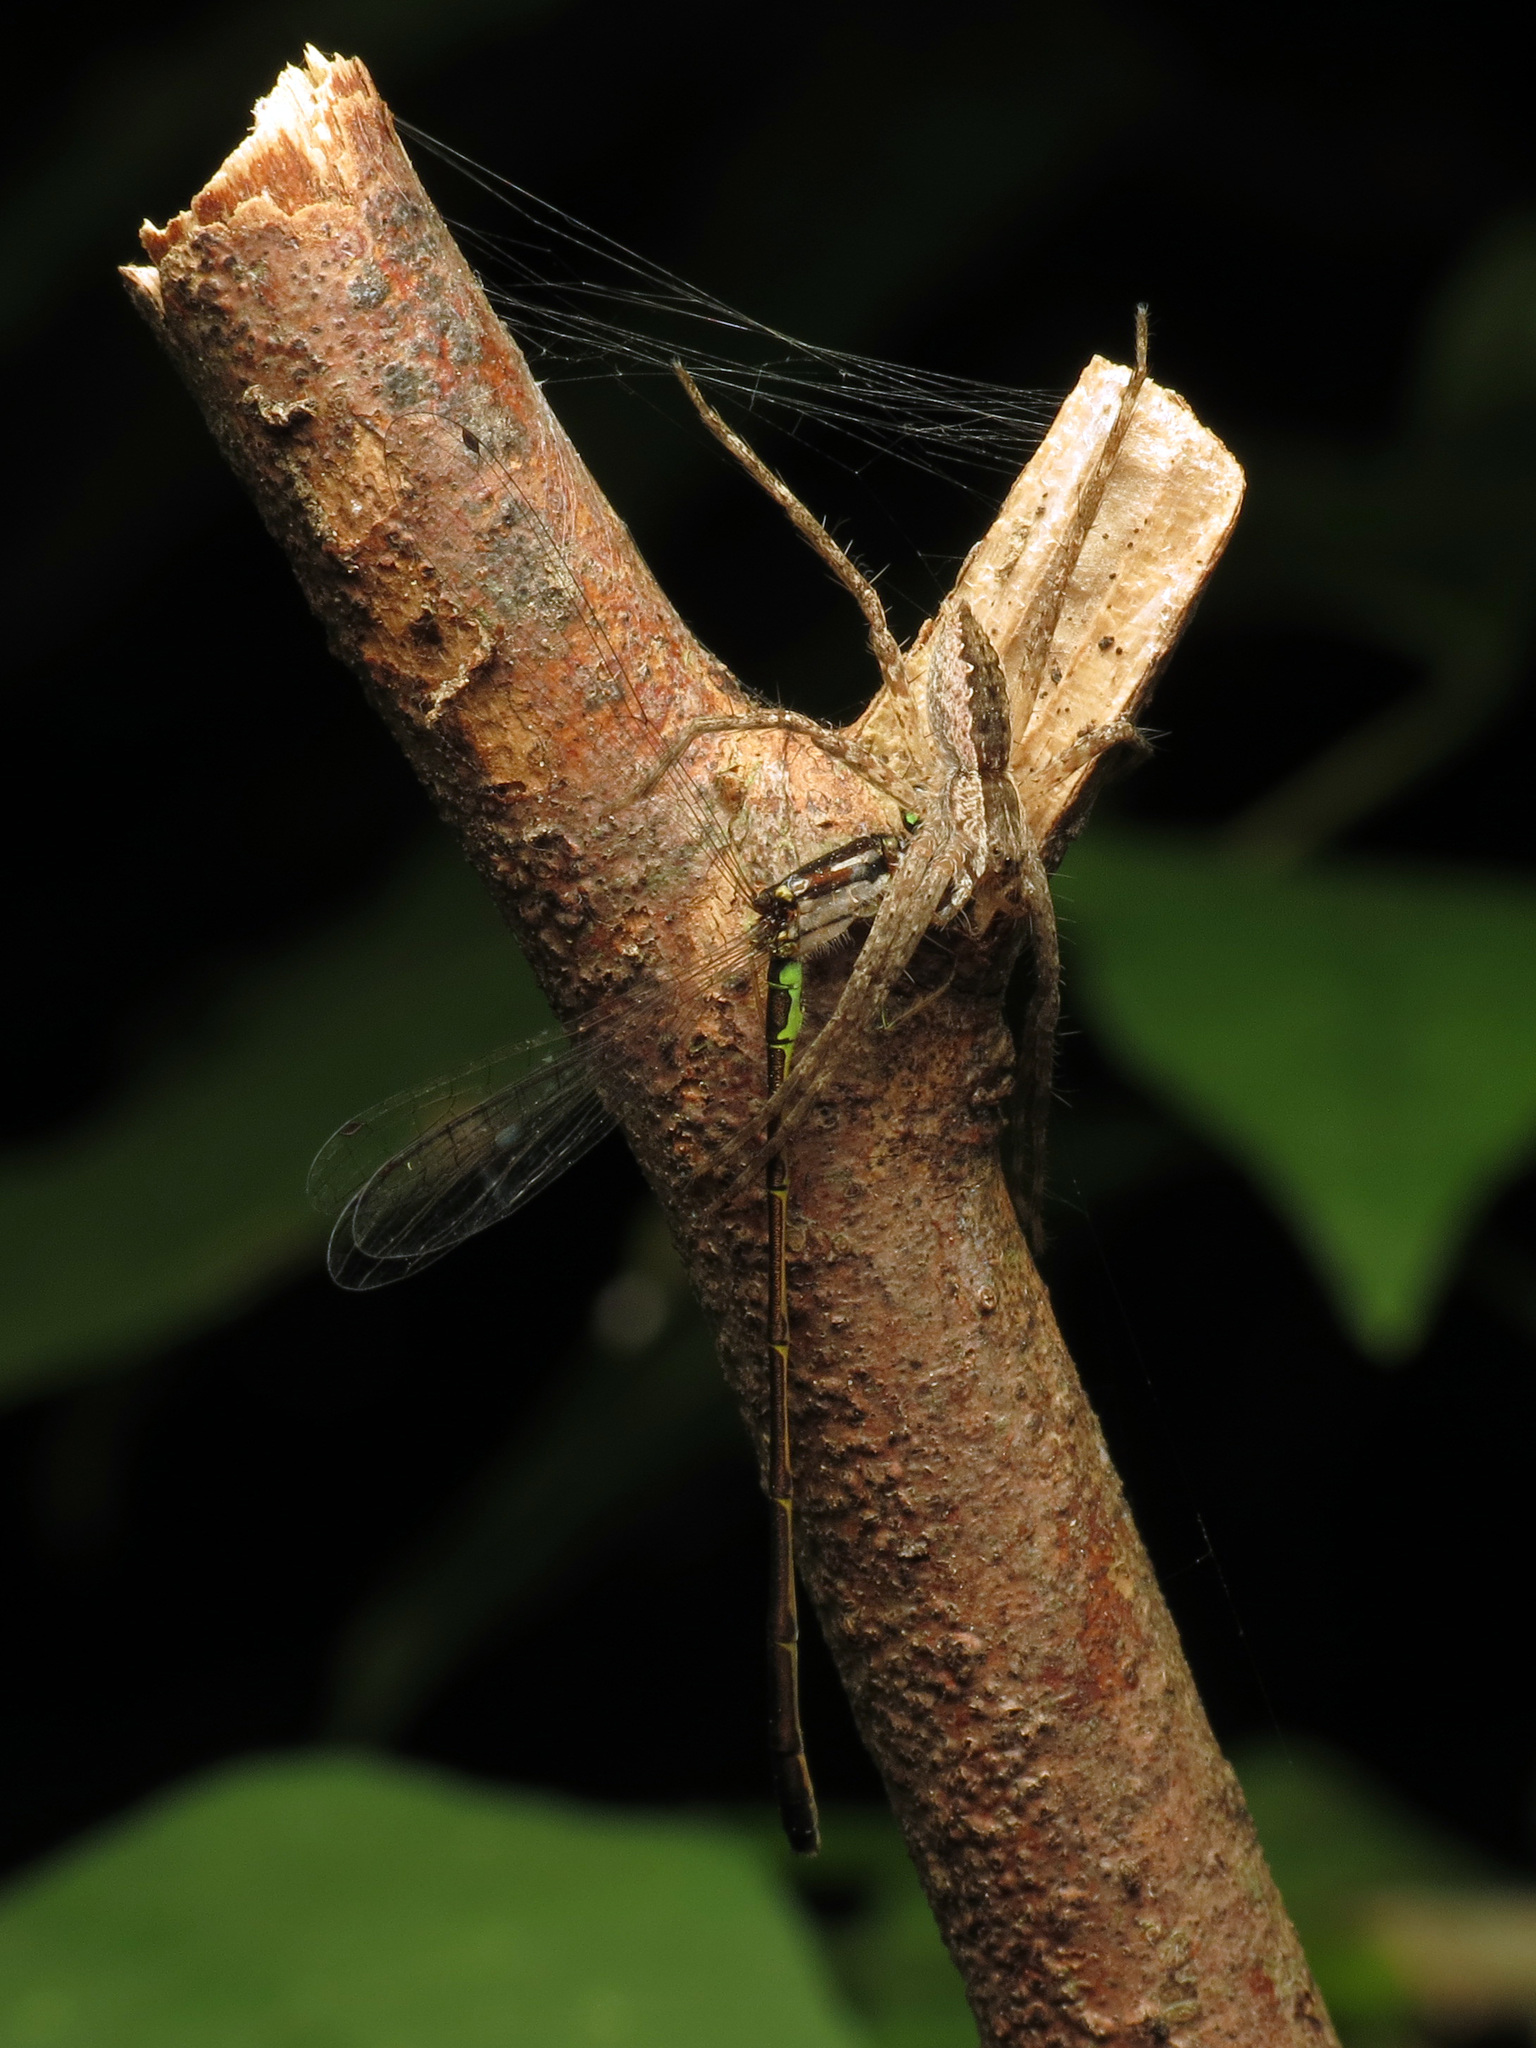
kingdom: Animalia
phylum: Arthropoda
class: Arachnida
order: Araneae
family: Pisauridae
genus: Pisaurina
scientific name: Pisaurina mira
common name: American nursery web spider
